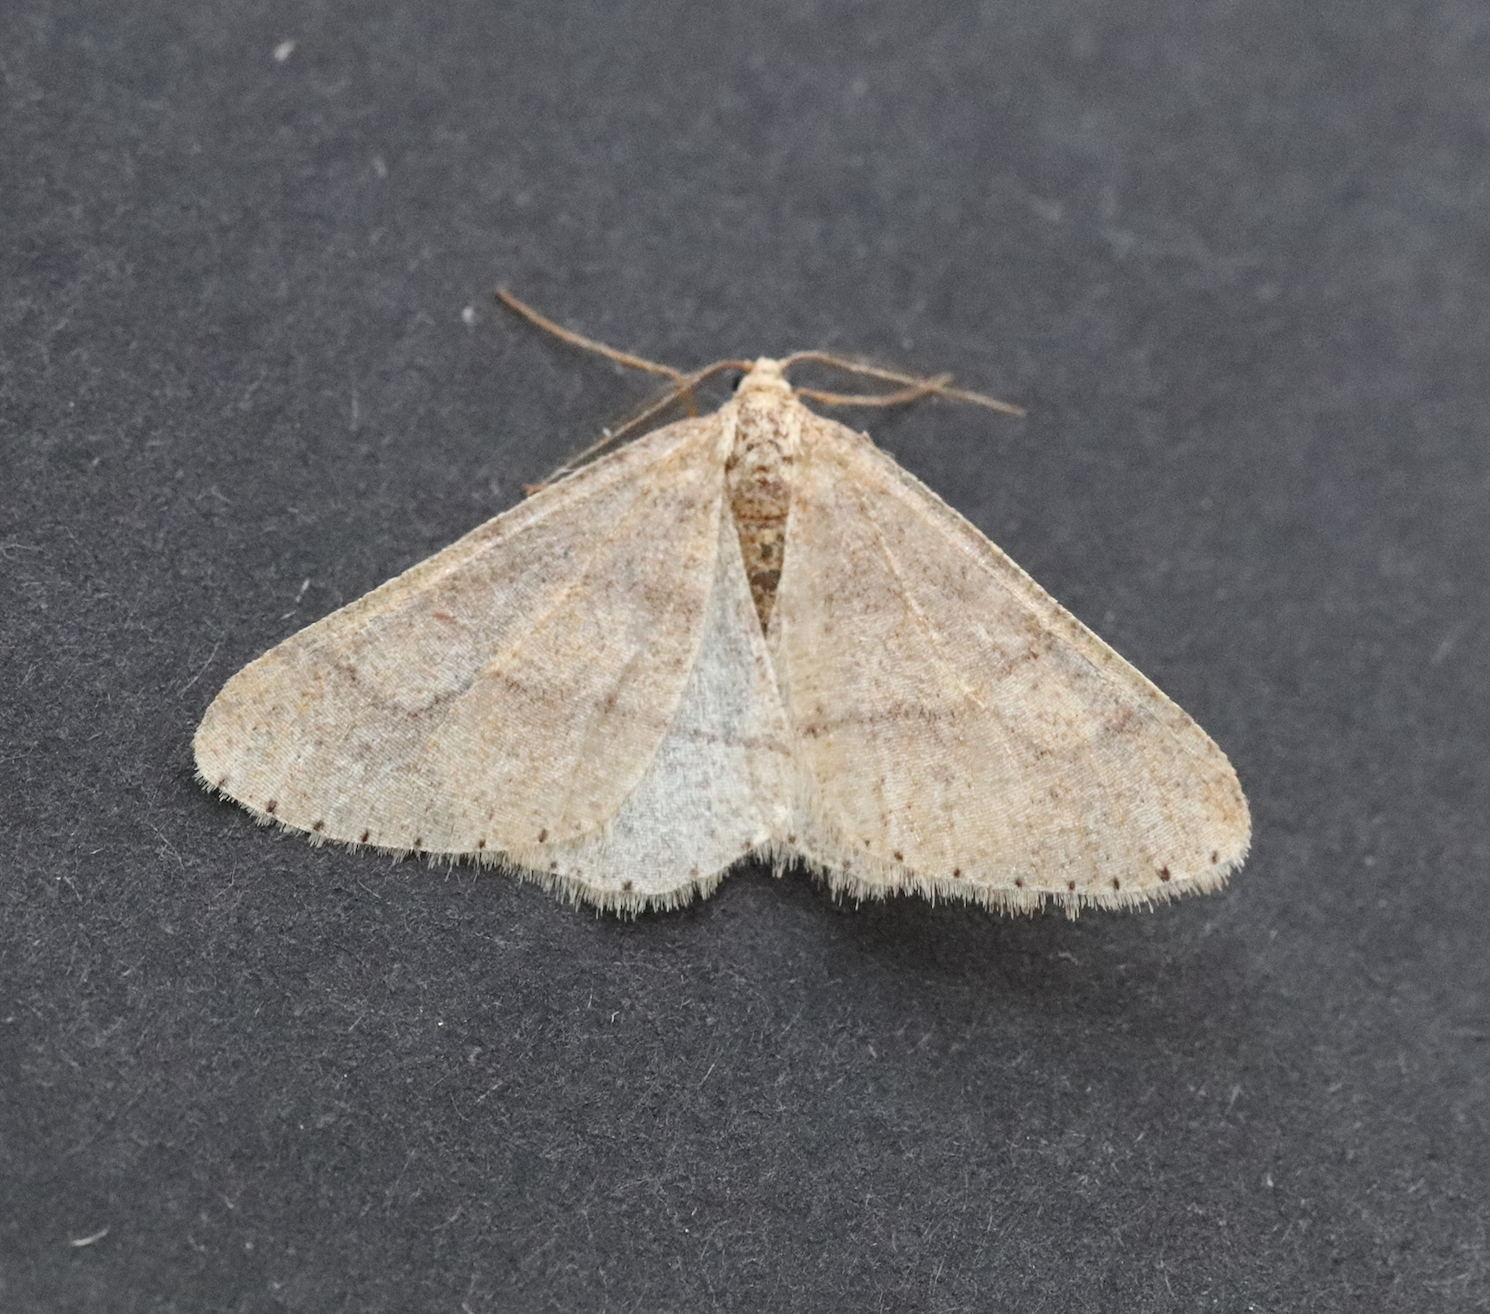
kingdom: Animalia
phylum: Arthropoda
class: Insecta
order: Lepidoptera
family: Geometridae
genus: Agriopis
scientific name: Agriopis marginaria
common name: Dotted border
